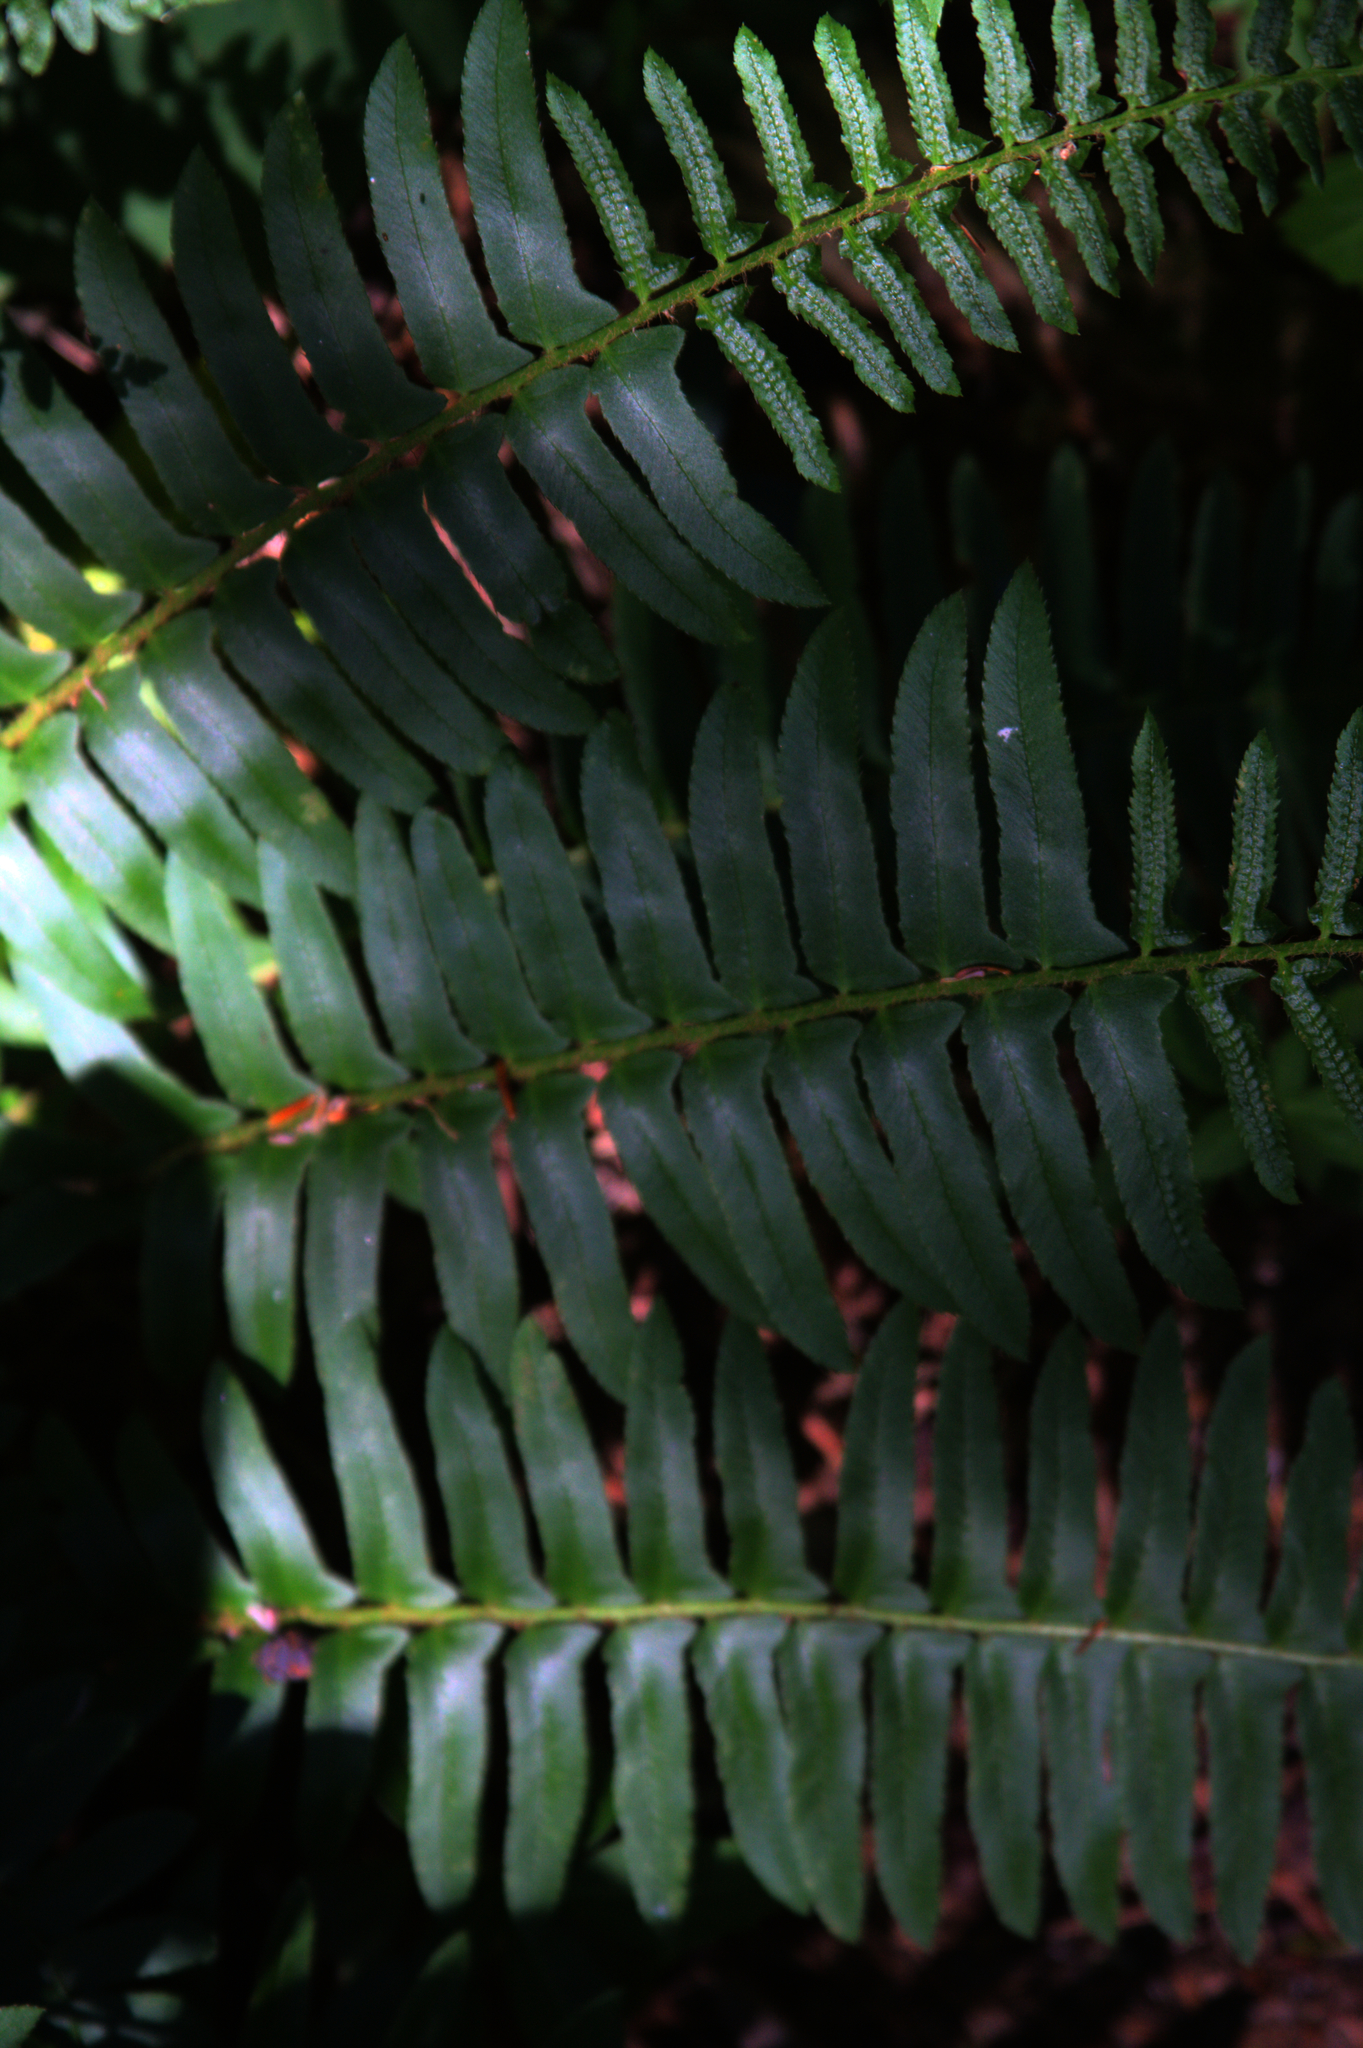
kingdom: Plantae
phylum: Tracheophyta
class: Polypodiopsida
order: Polypodiales
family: Dryopteridaceae
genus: Polystichum
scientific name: Polystichum acrostichoides
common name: Christmas fern
